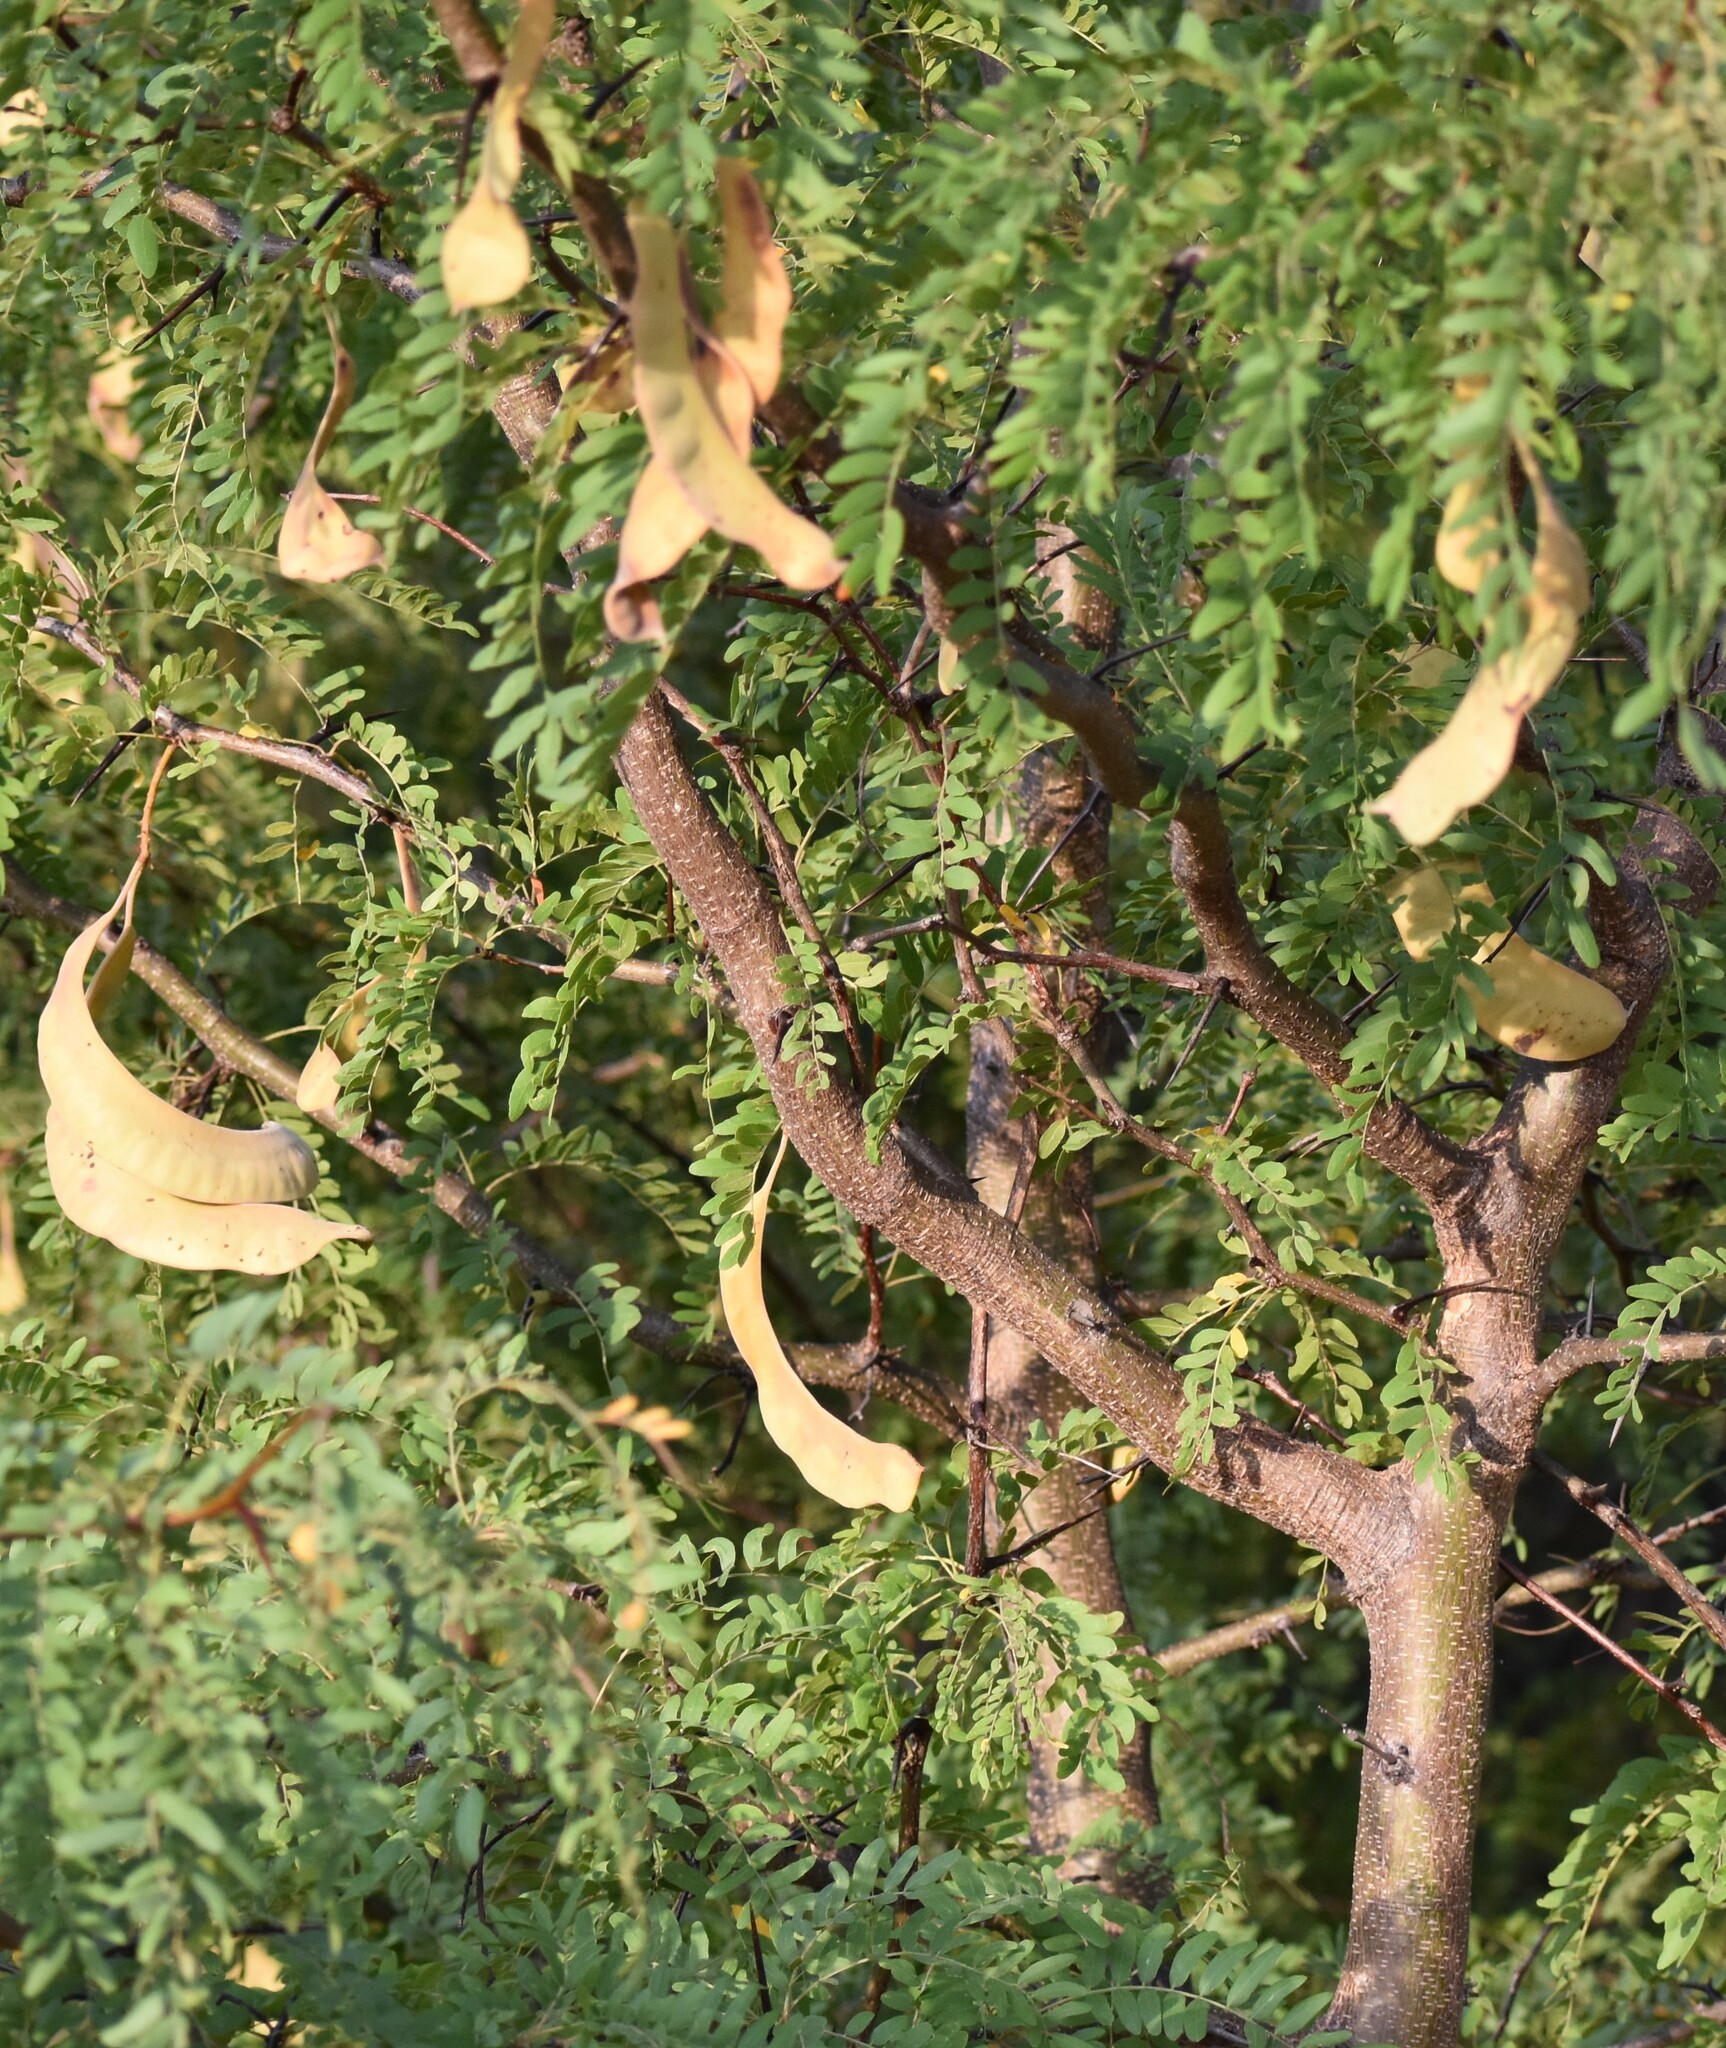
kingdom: Plantae
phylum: Tracheophyta
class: Magnoliopsida
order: Fabales
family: Fabaceae
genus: Gleditsia
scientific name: Gleditsia triacanthos
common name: Common honeylocust
